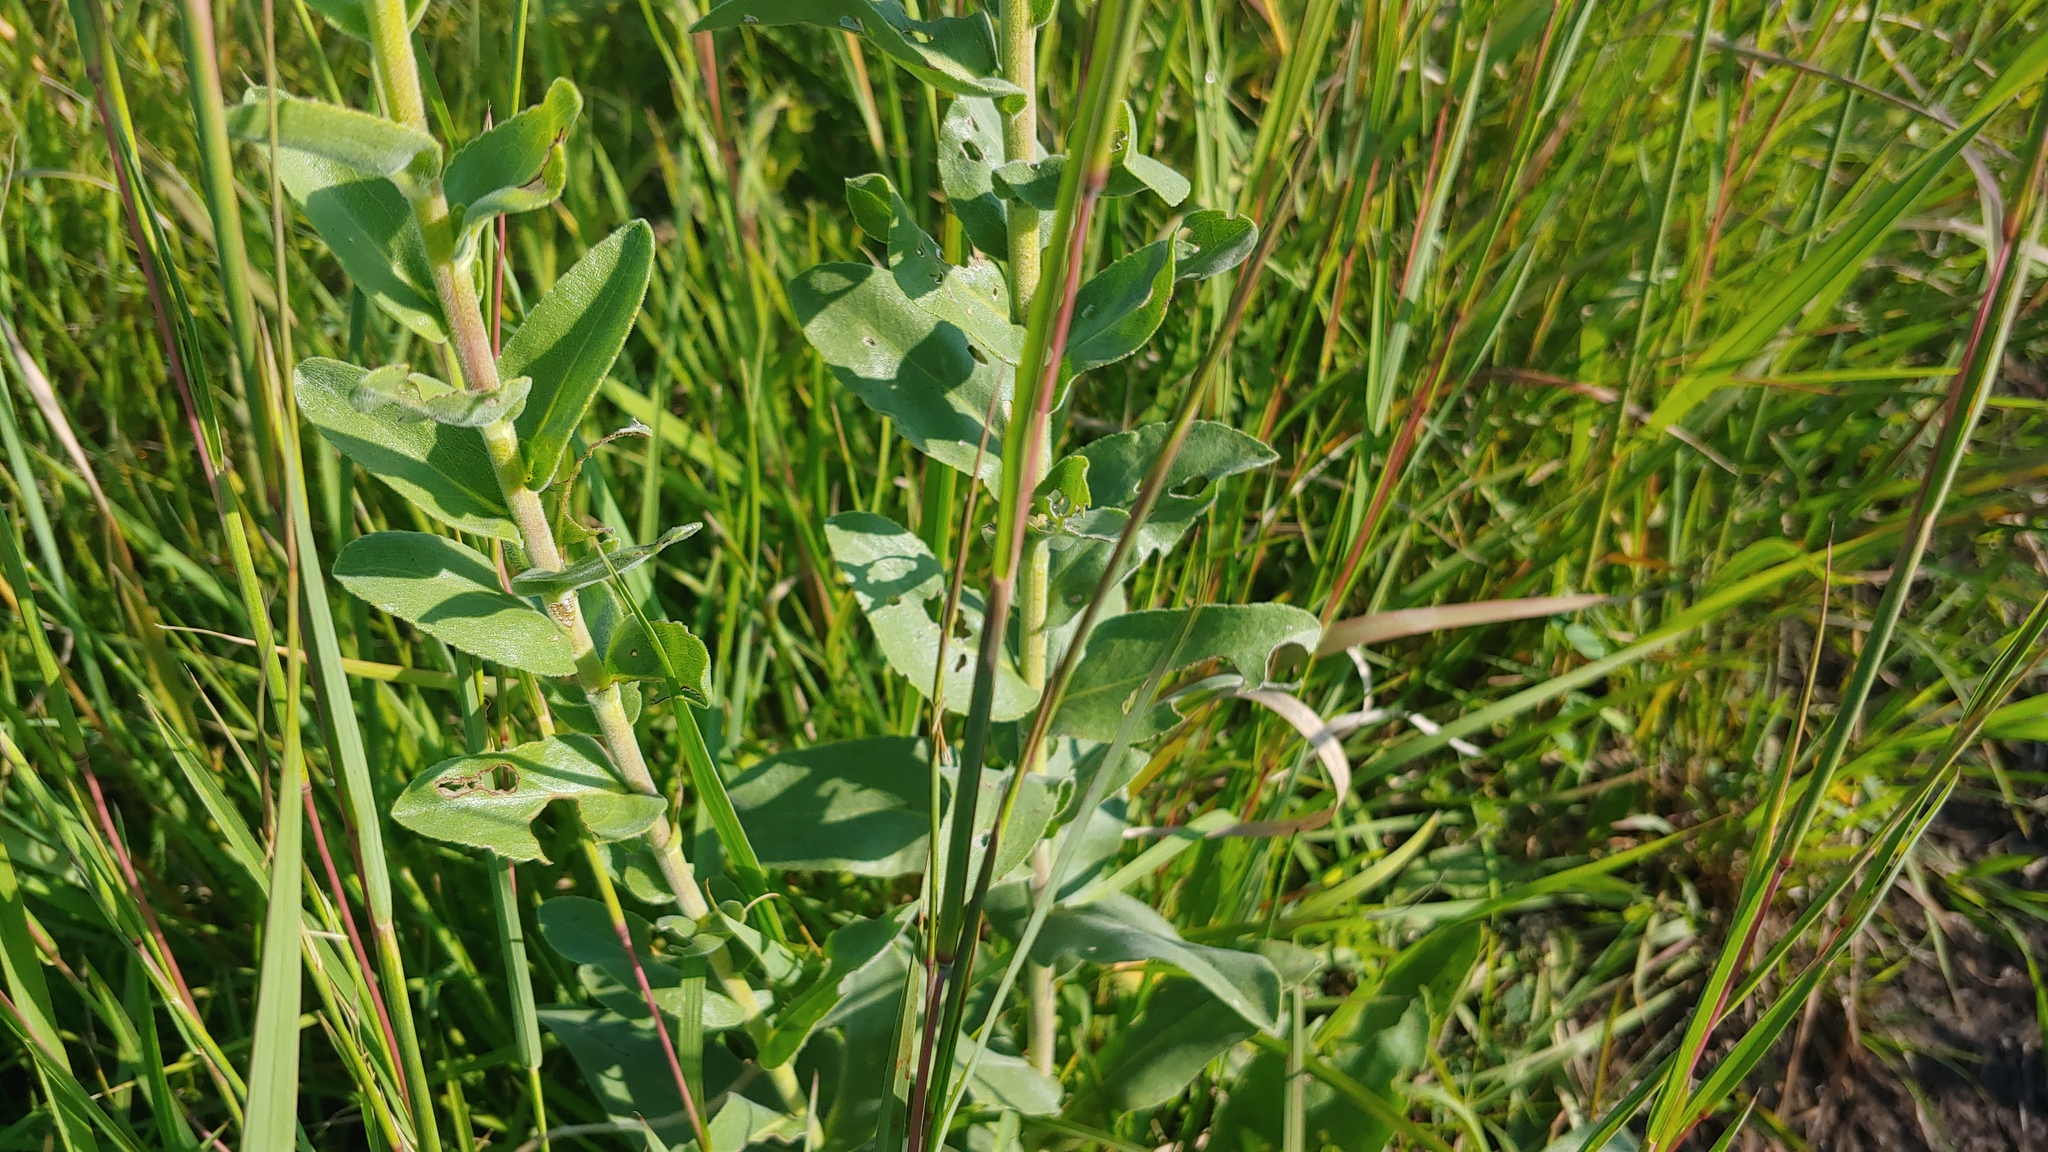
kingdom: Plantae
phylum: Tracheophyta
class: Magnoliopsida
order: Asterales
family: Asteraceae
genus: Solidago
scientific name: Solidago rigida
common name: Rigid goldenrod
